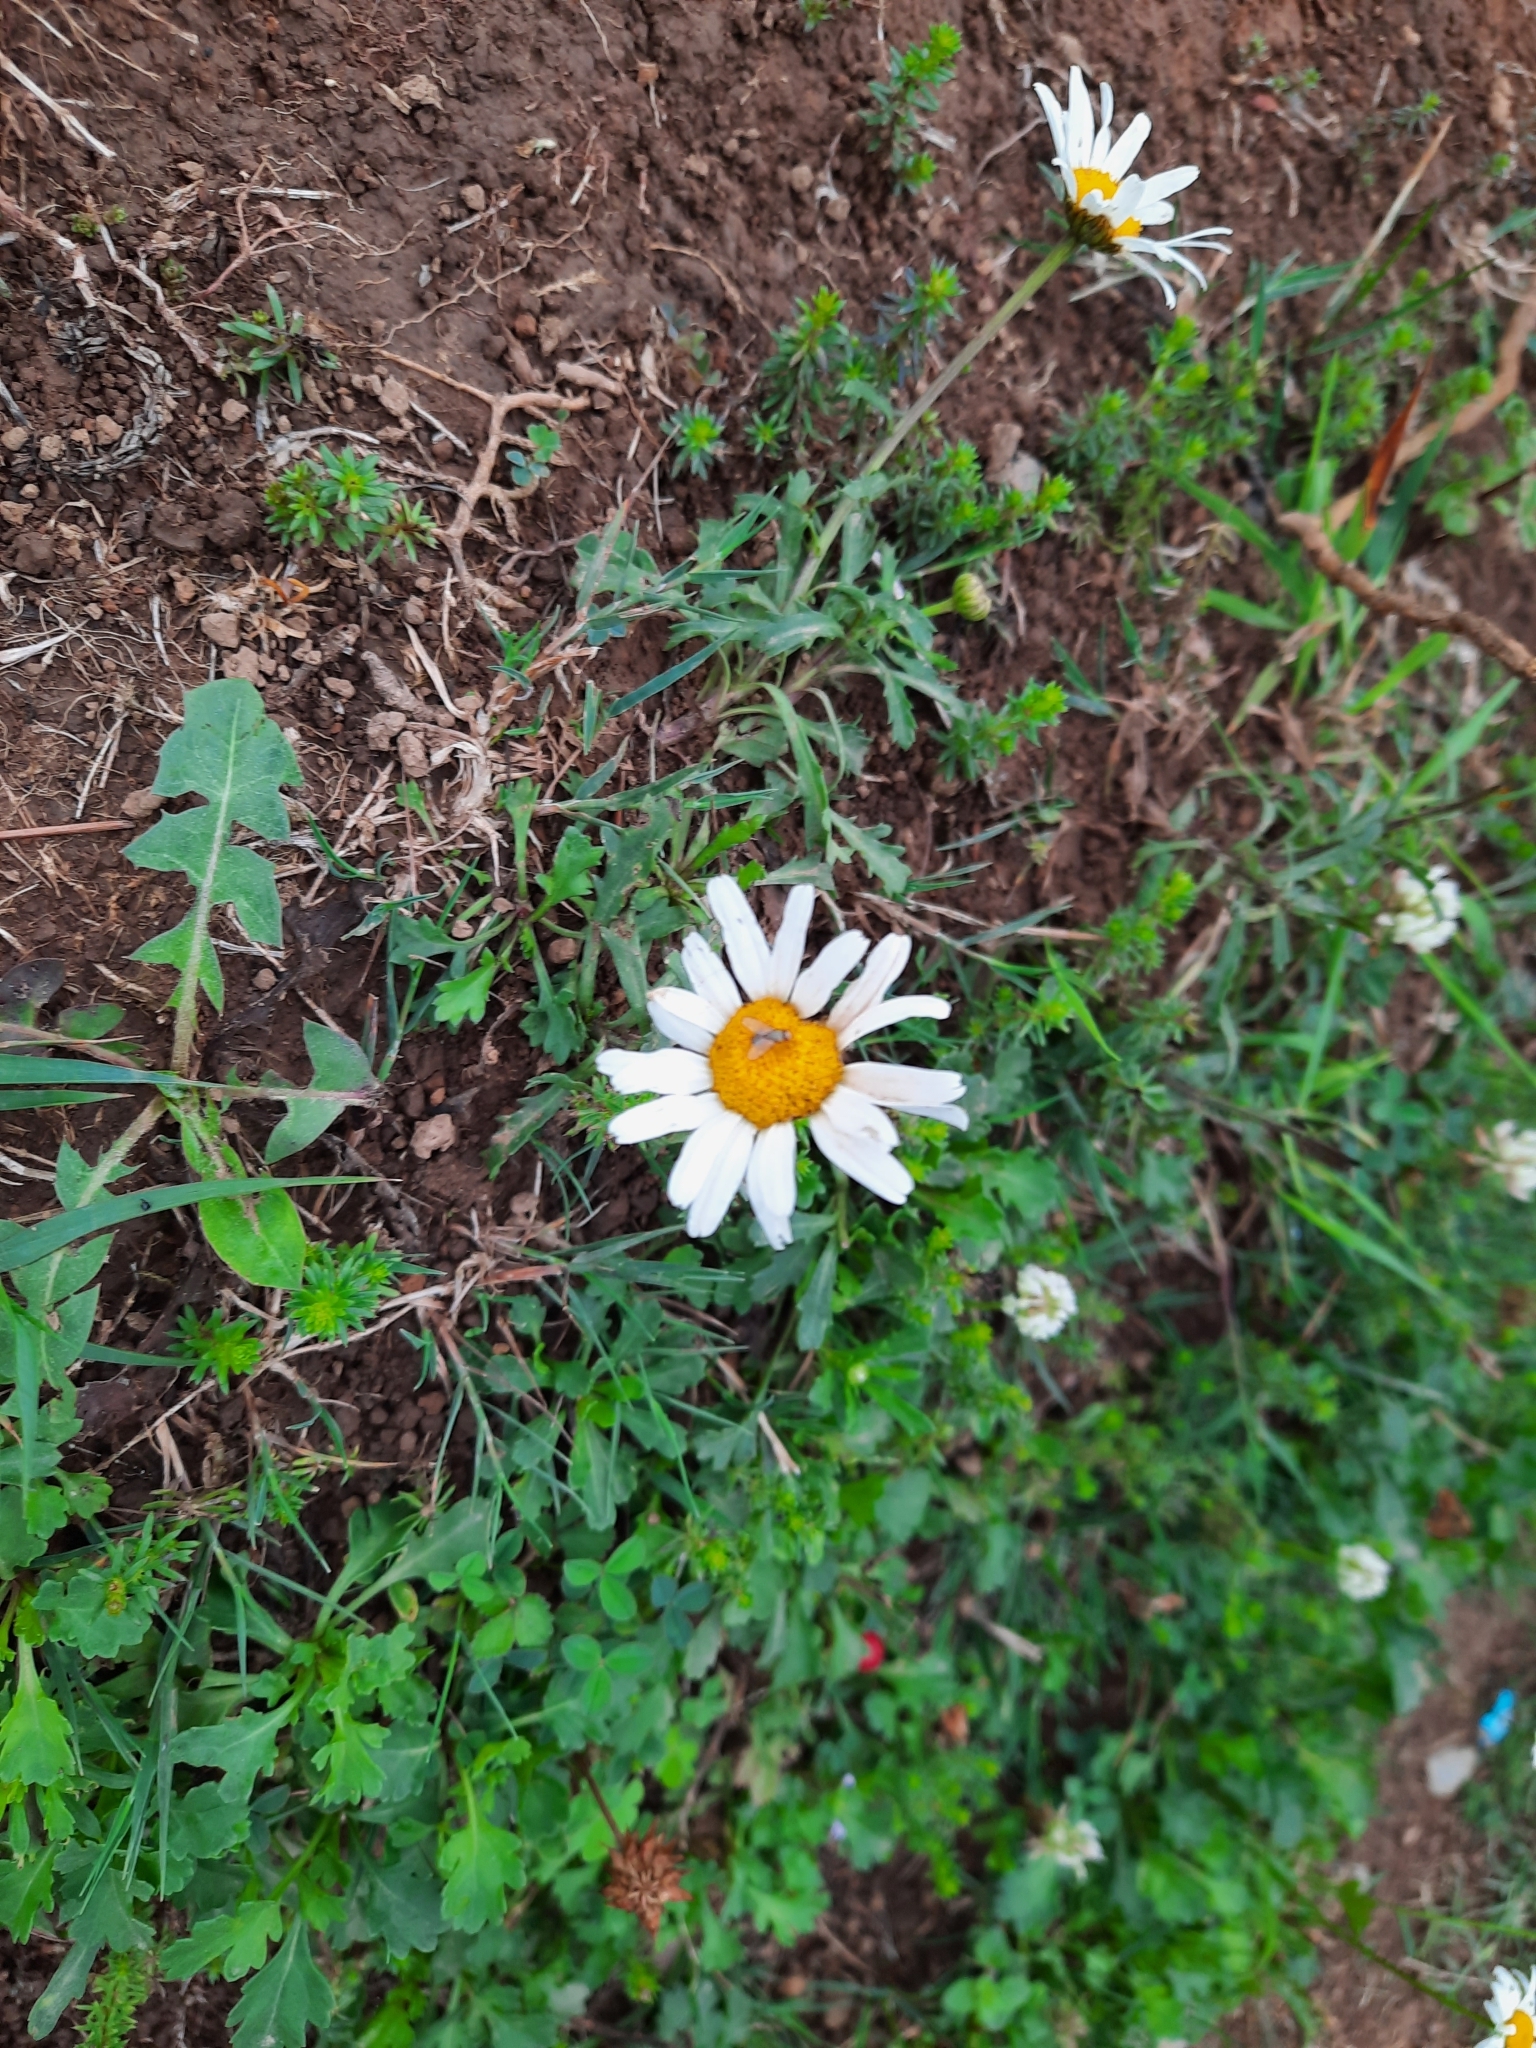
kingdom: Plantae
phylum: Tracheophyta
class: Magnoliopsida
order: Asterales
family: Asteraceae
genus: Leucanthemum
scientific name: Leucanthemum vulgare
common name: Oxeye daisy
